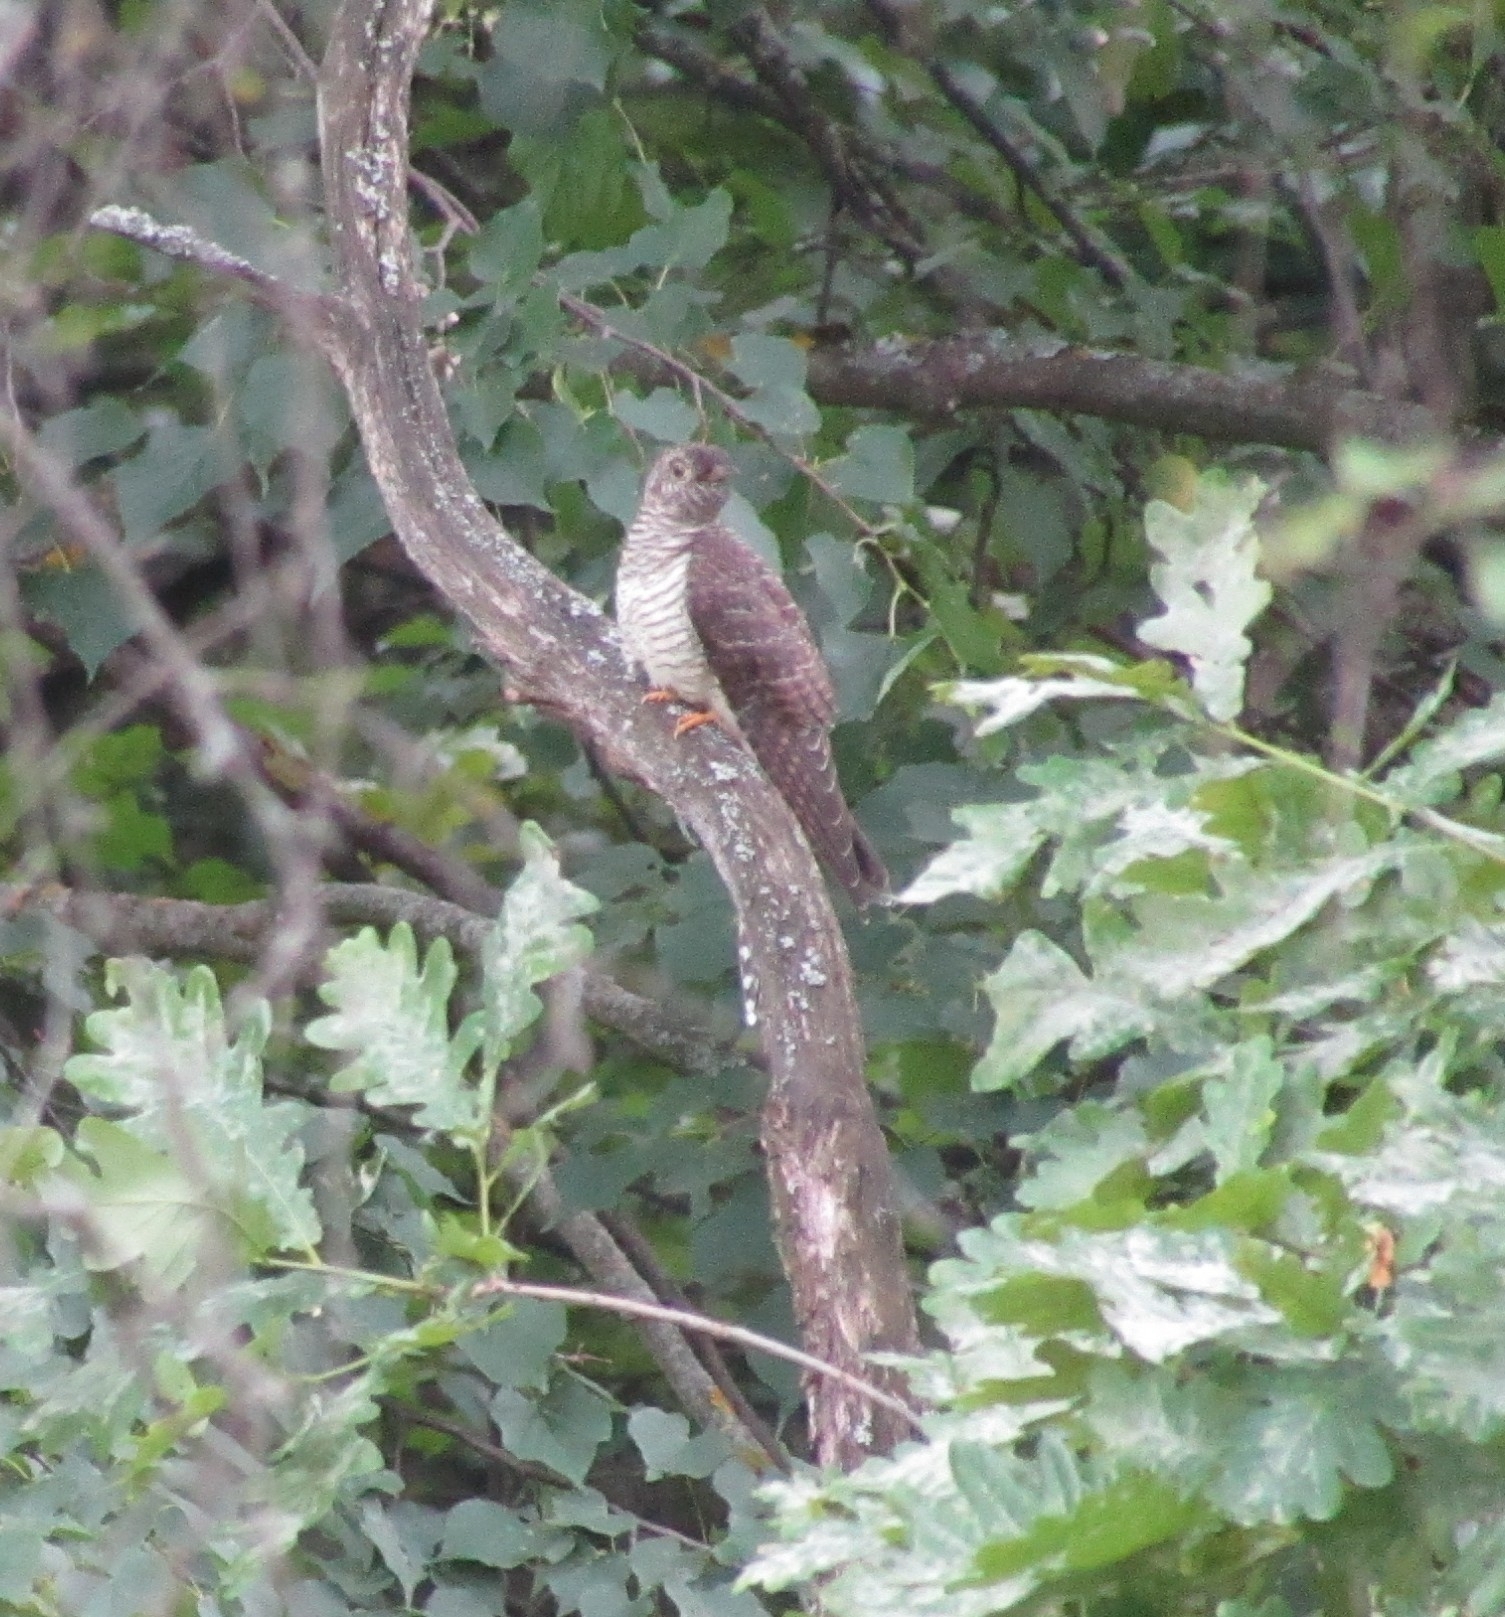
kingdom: Animalia
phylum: Chordata
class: Aves
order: Cuculiformes
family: Cuculidae
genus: Cuculus
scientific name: Cuculus canorus
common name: Common cuckoo
